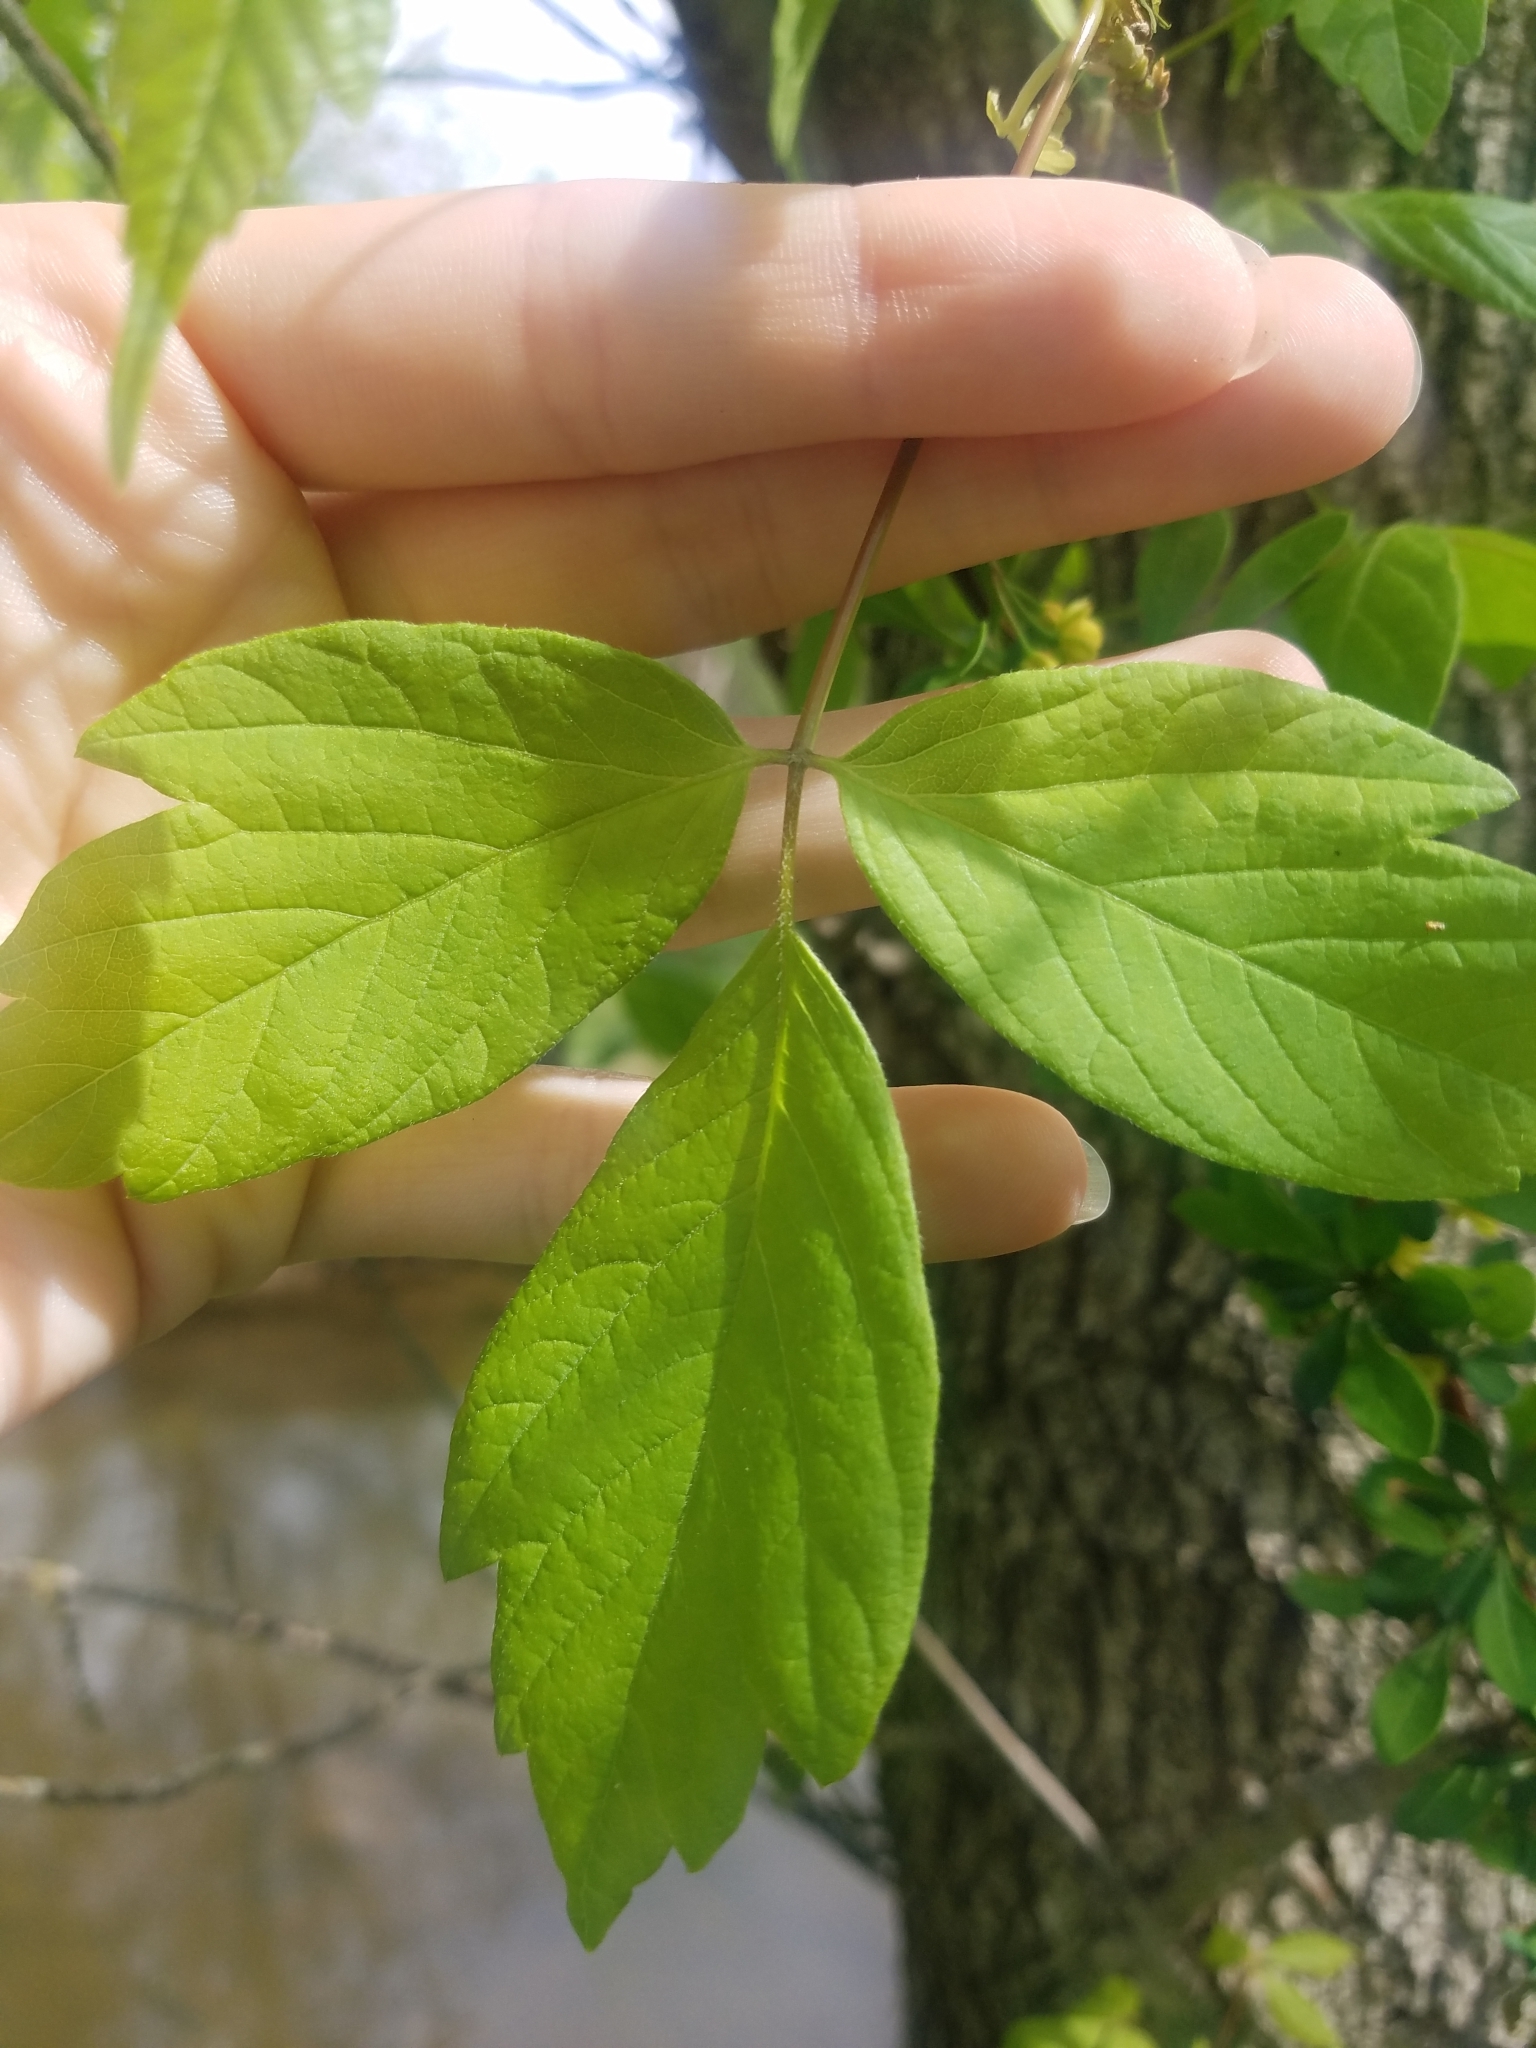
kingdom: Plantae
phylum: Tracheophyta
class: Magnoliopsida
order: Sapindales
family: Sapindaceae
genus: Acer
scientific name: Acer negundo
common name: Ashleaf maple
